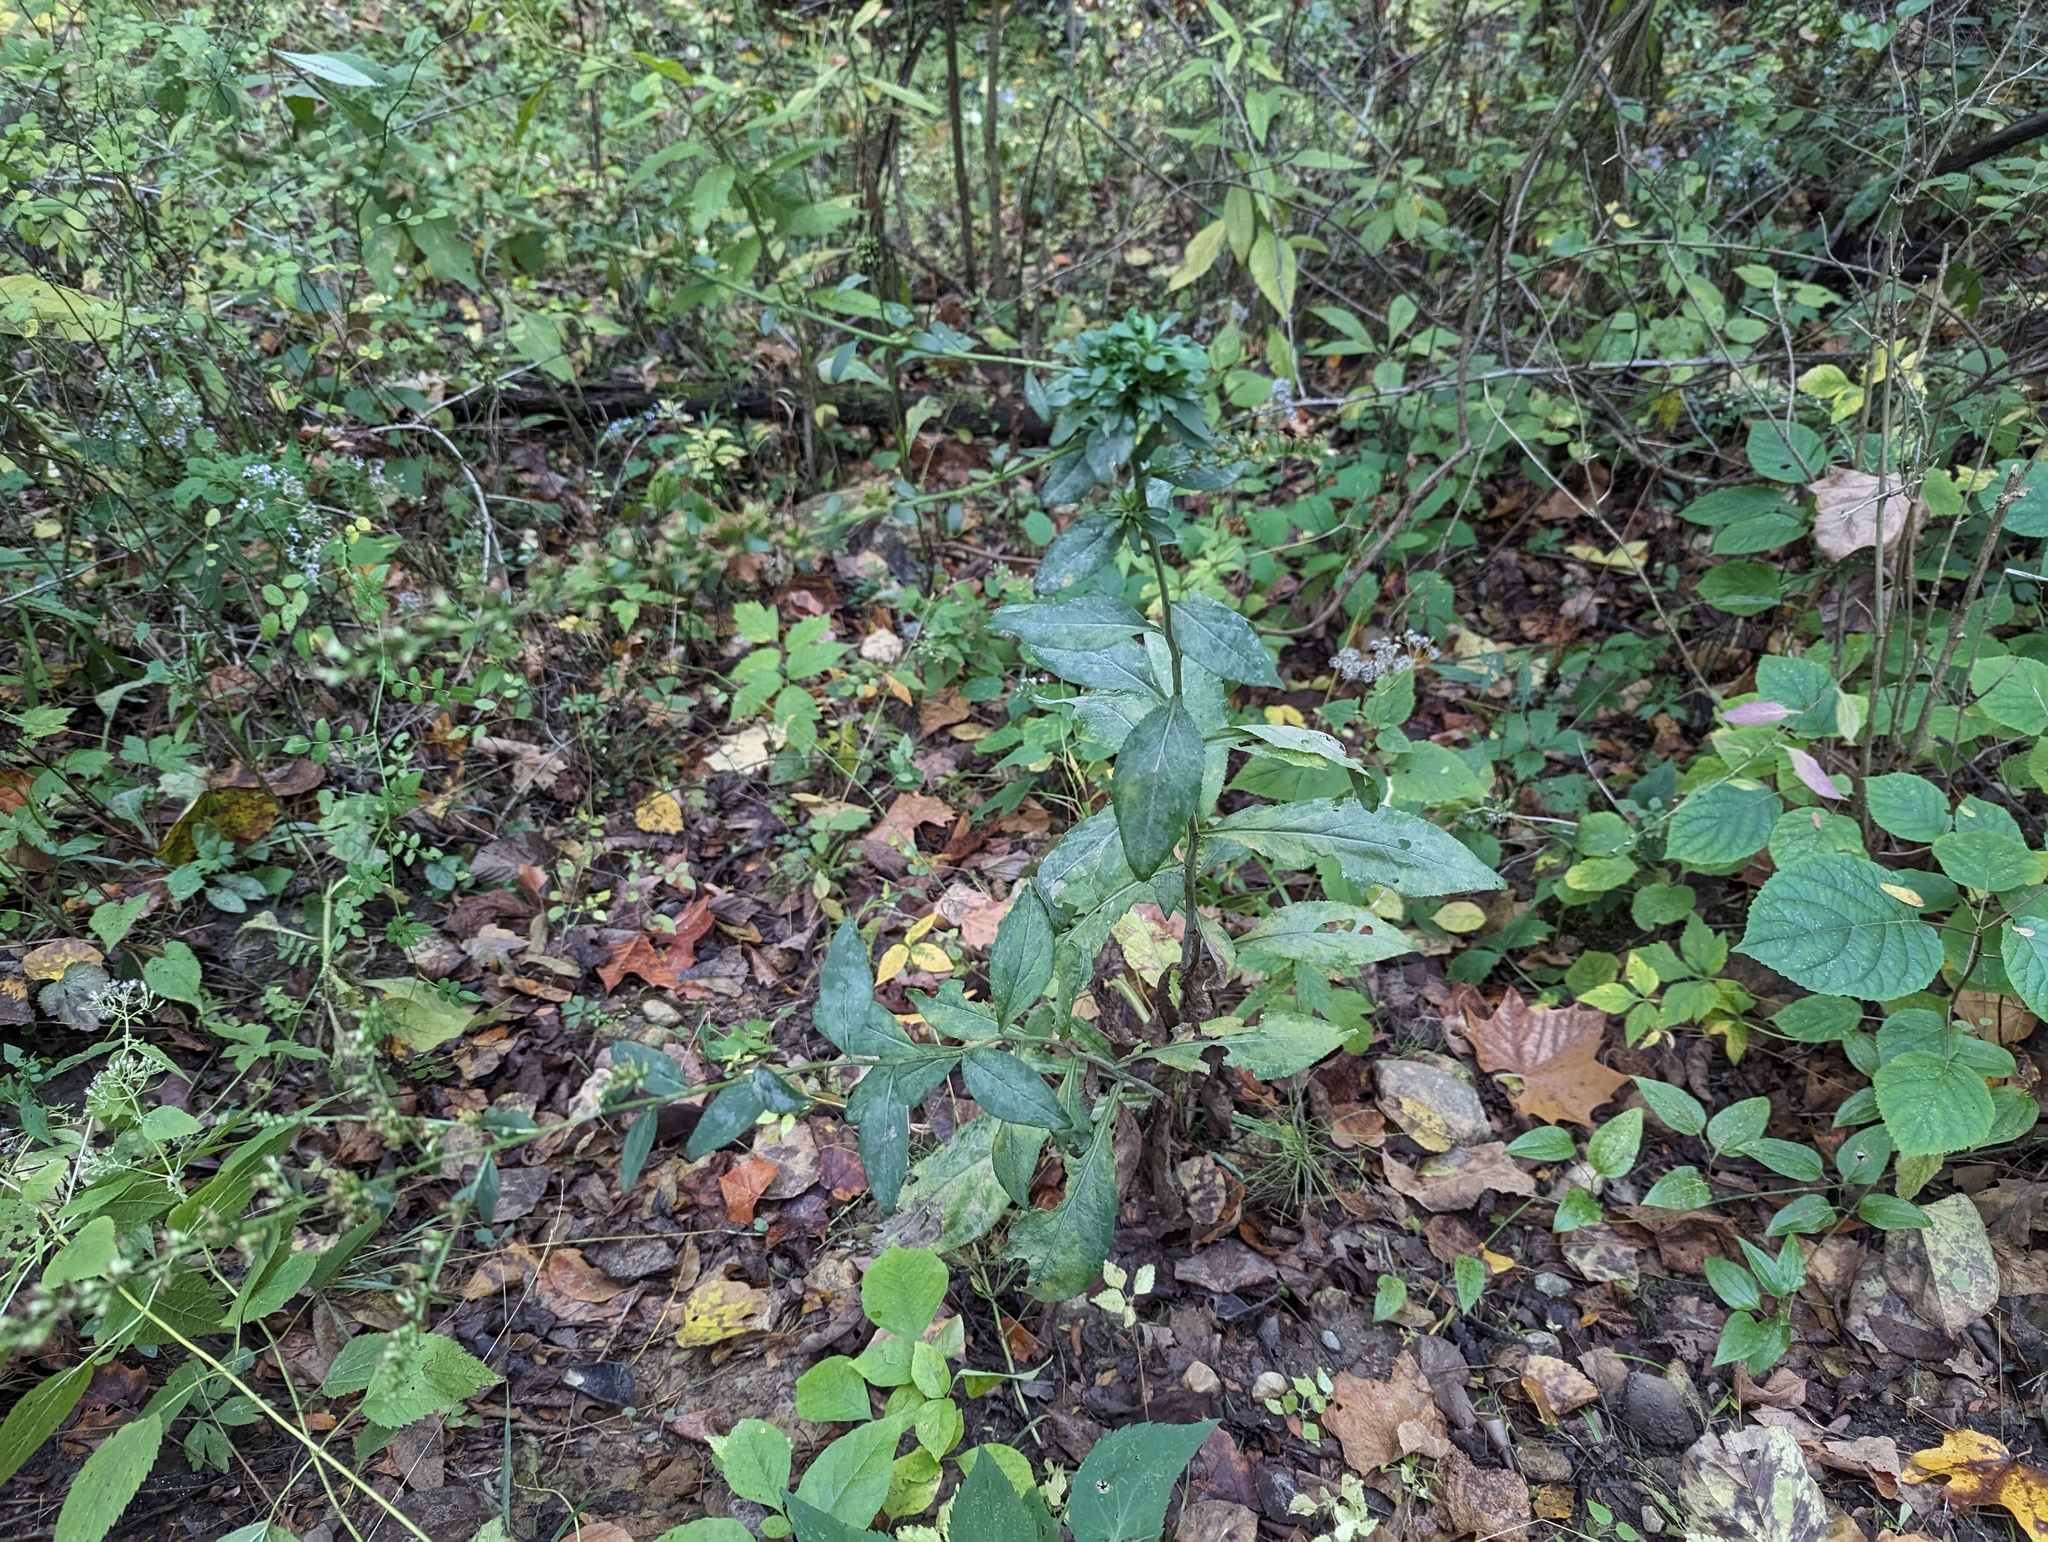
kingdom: Plantae
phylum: Tracheophyta
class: Magnoliopsida
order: Asterales
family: Asteraceae
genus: Solidago
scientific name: Solidago patula
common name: Rough-leaf goldenrod
